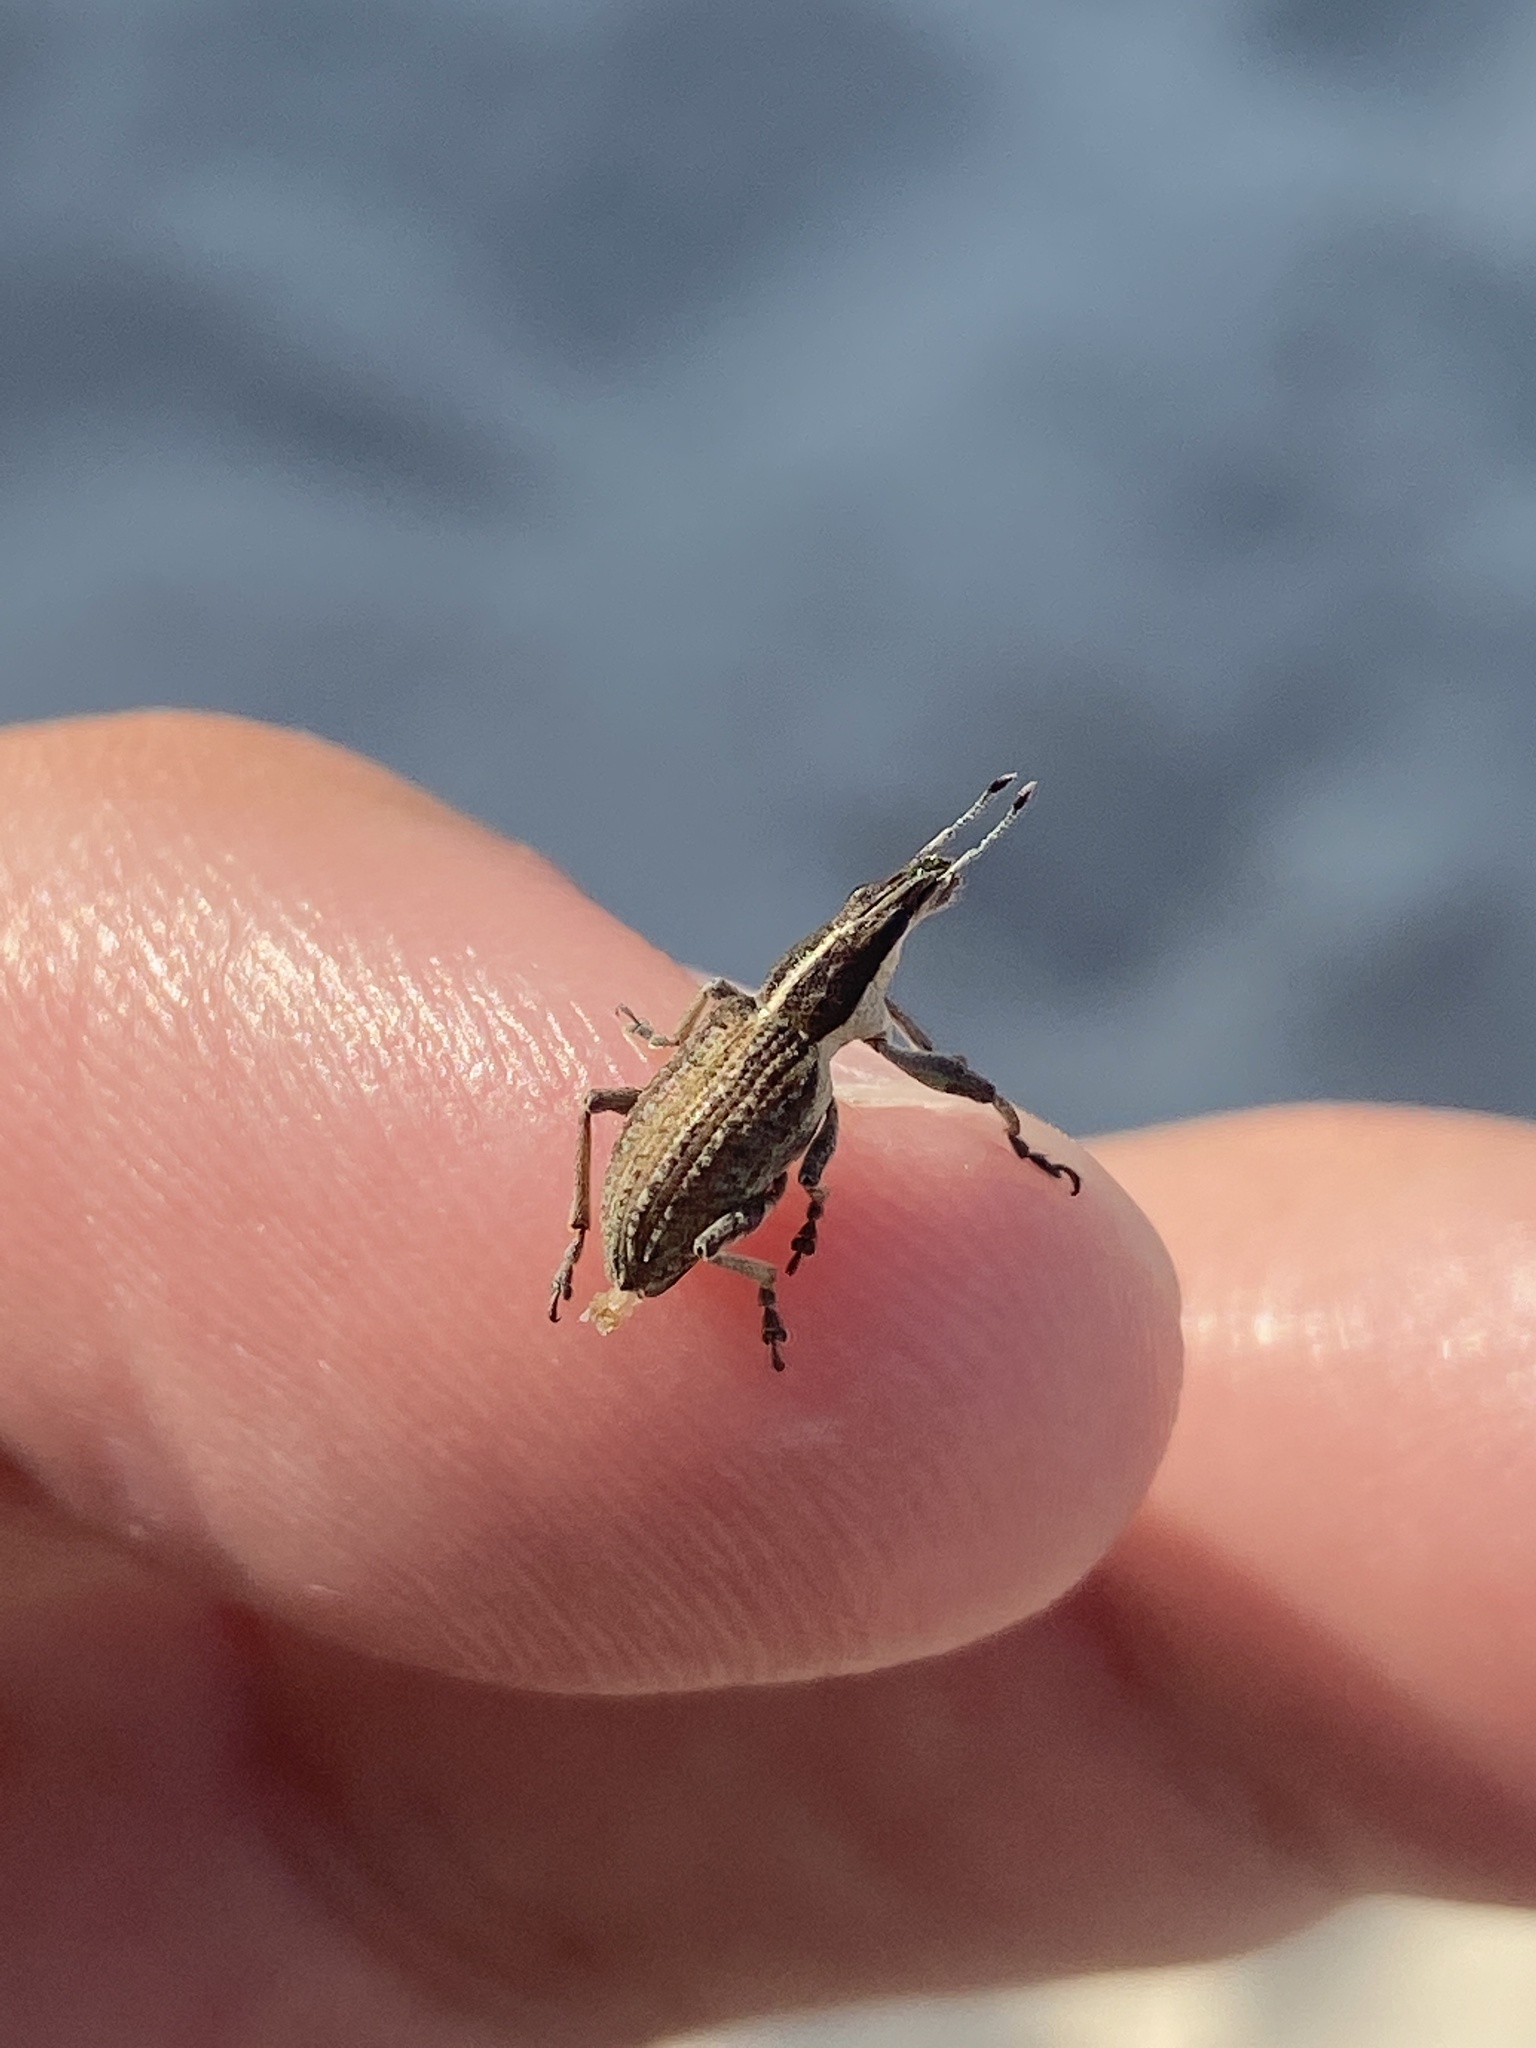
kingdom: Animalia
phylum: Arthropoda
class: Insecta
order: Coleoptera
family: Curculionidae
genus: Charagmus
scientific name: Charagmus gressorius
